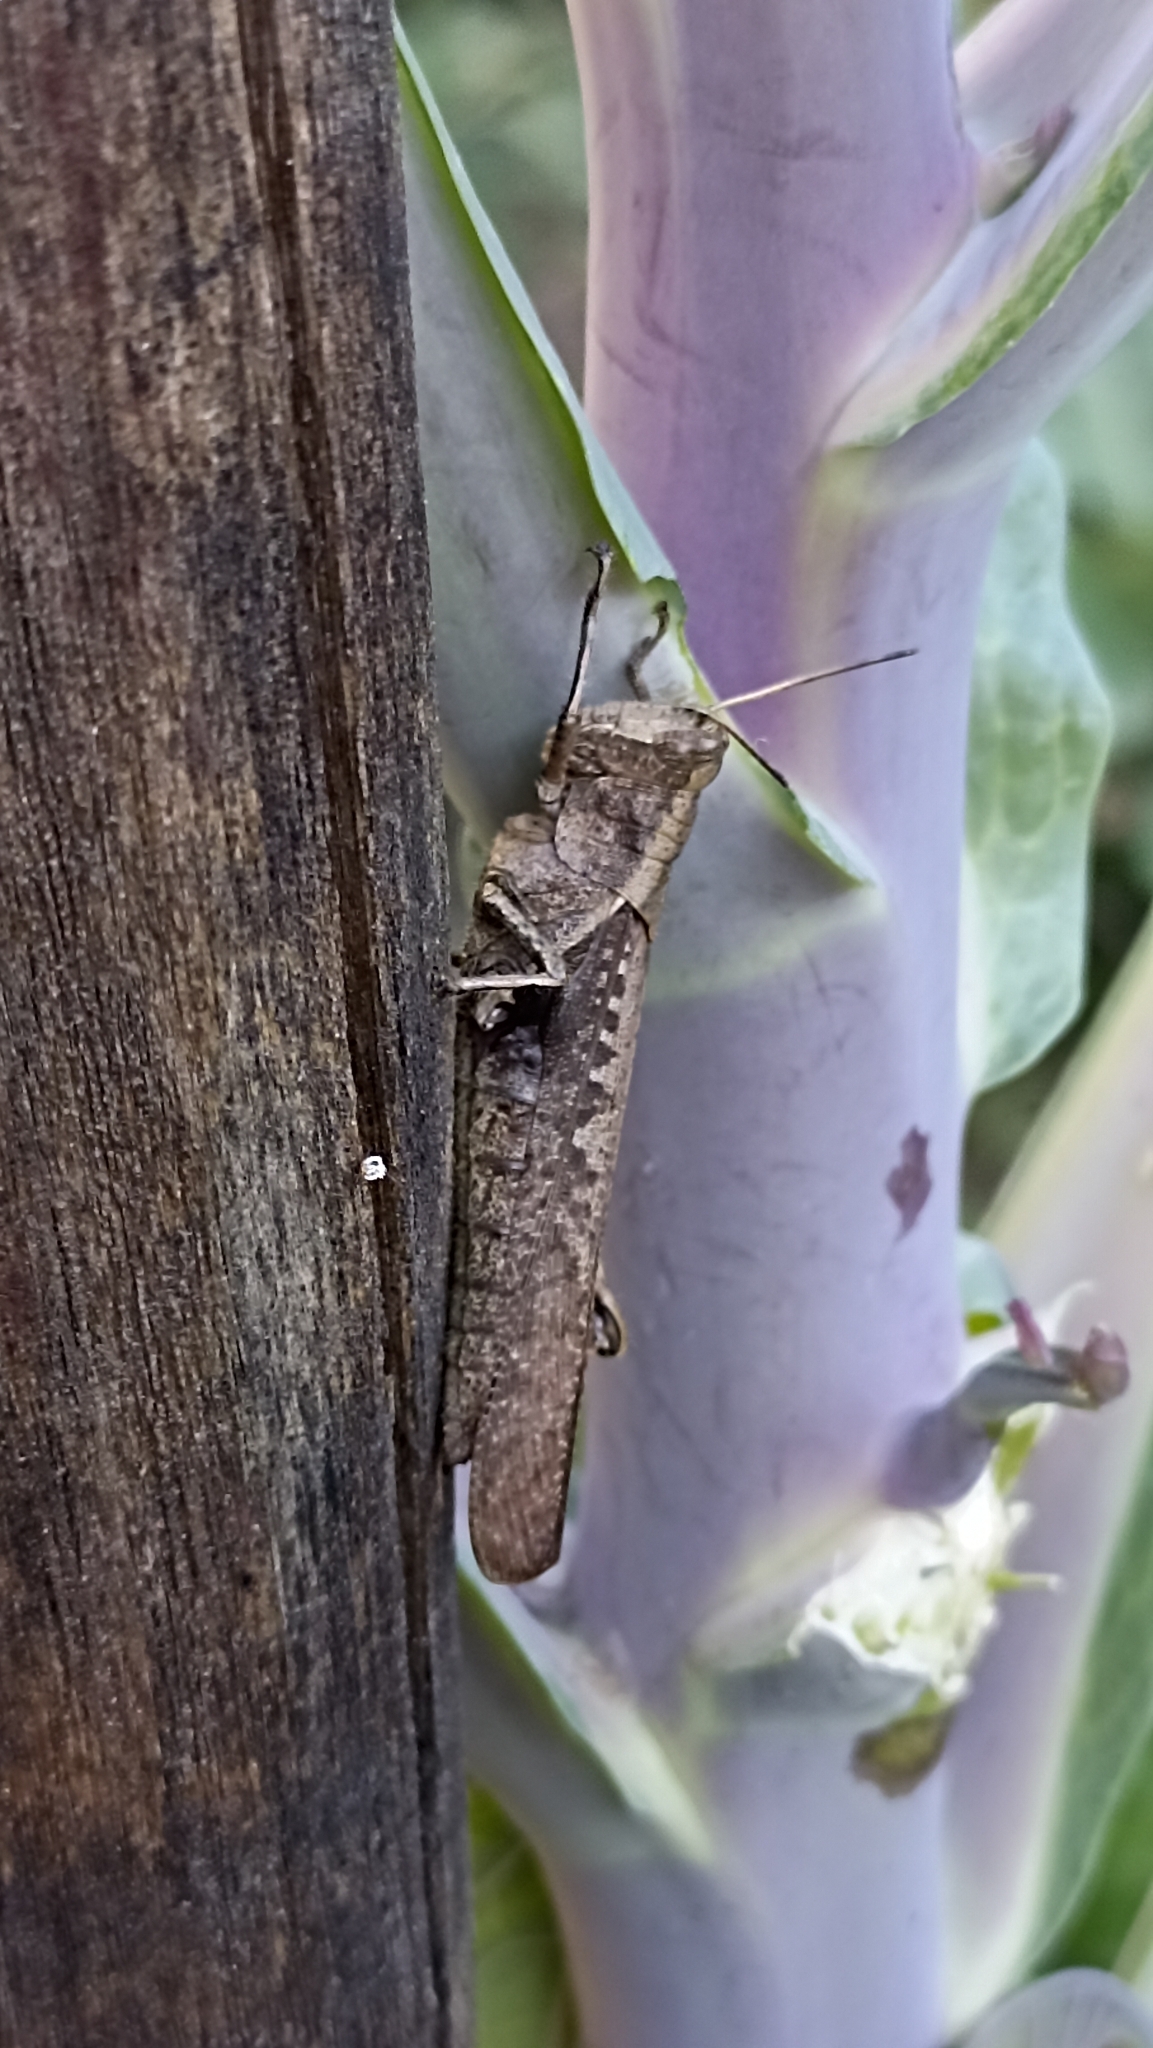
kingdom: Animalia
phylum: Arthropoda
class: Insecta
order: Orthoptera
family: Acrididae
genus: Abracris
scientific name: Abracris flavolineata
